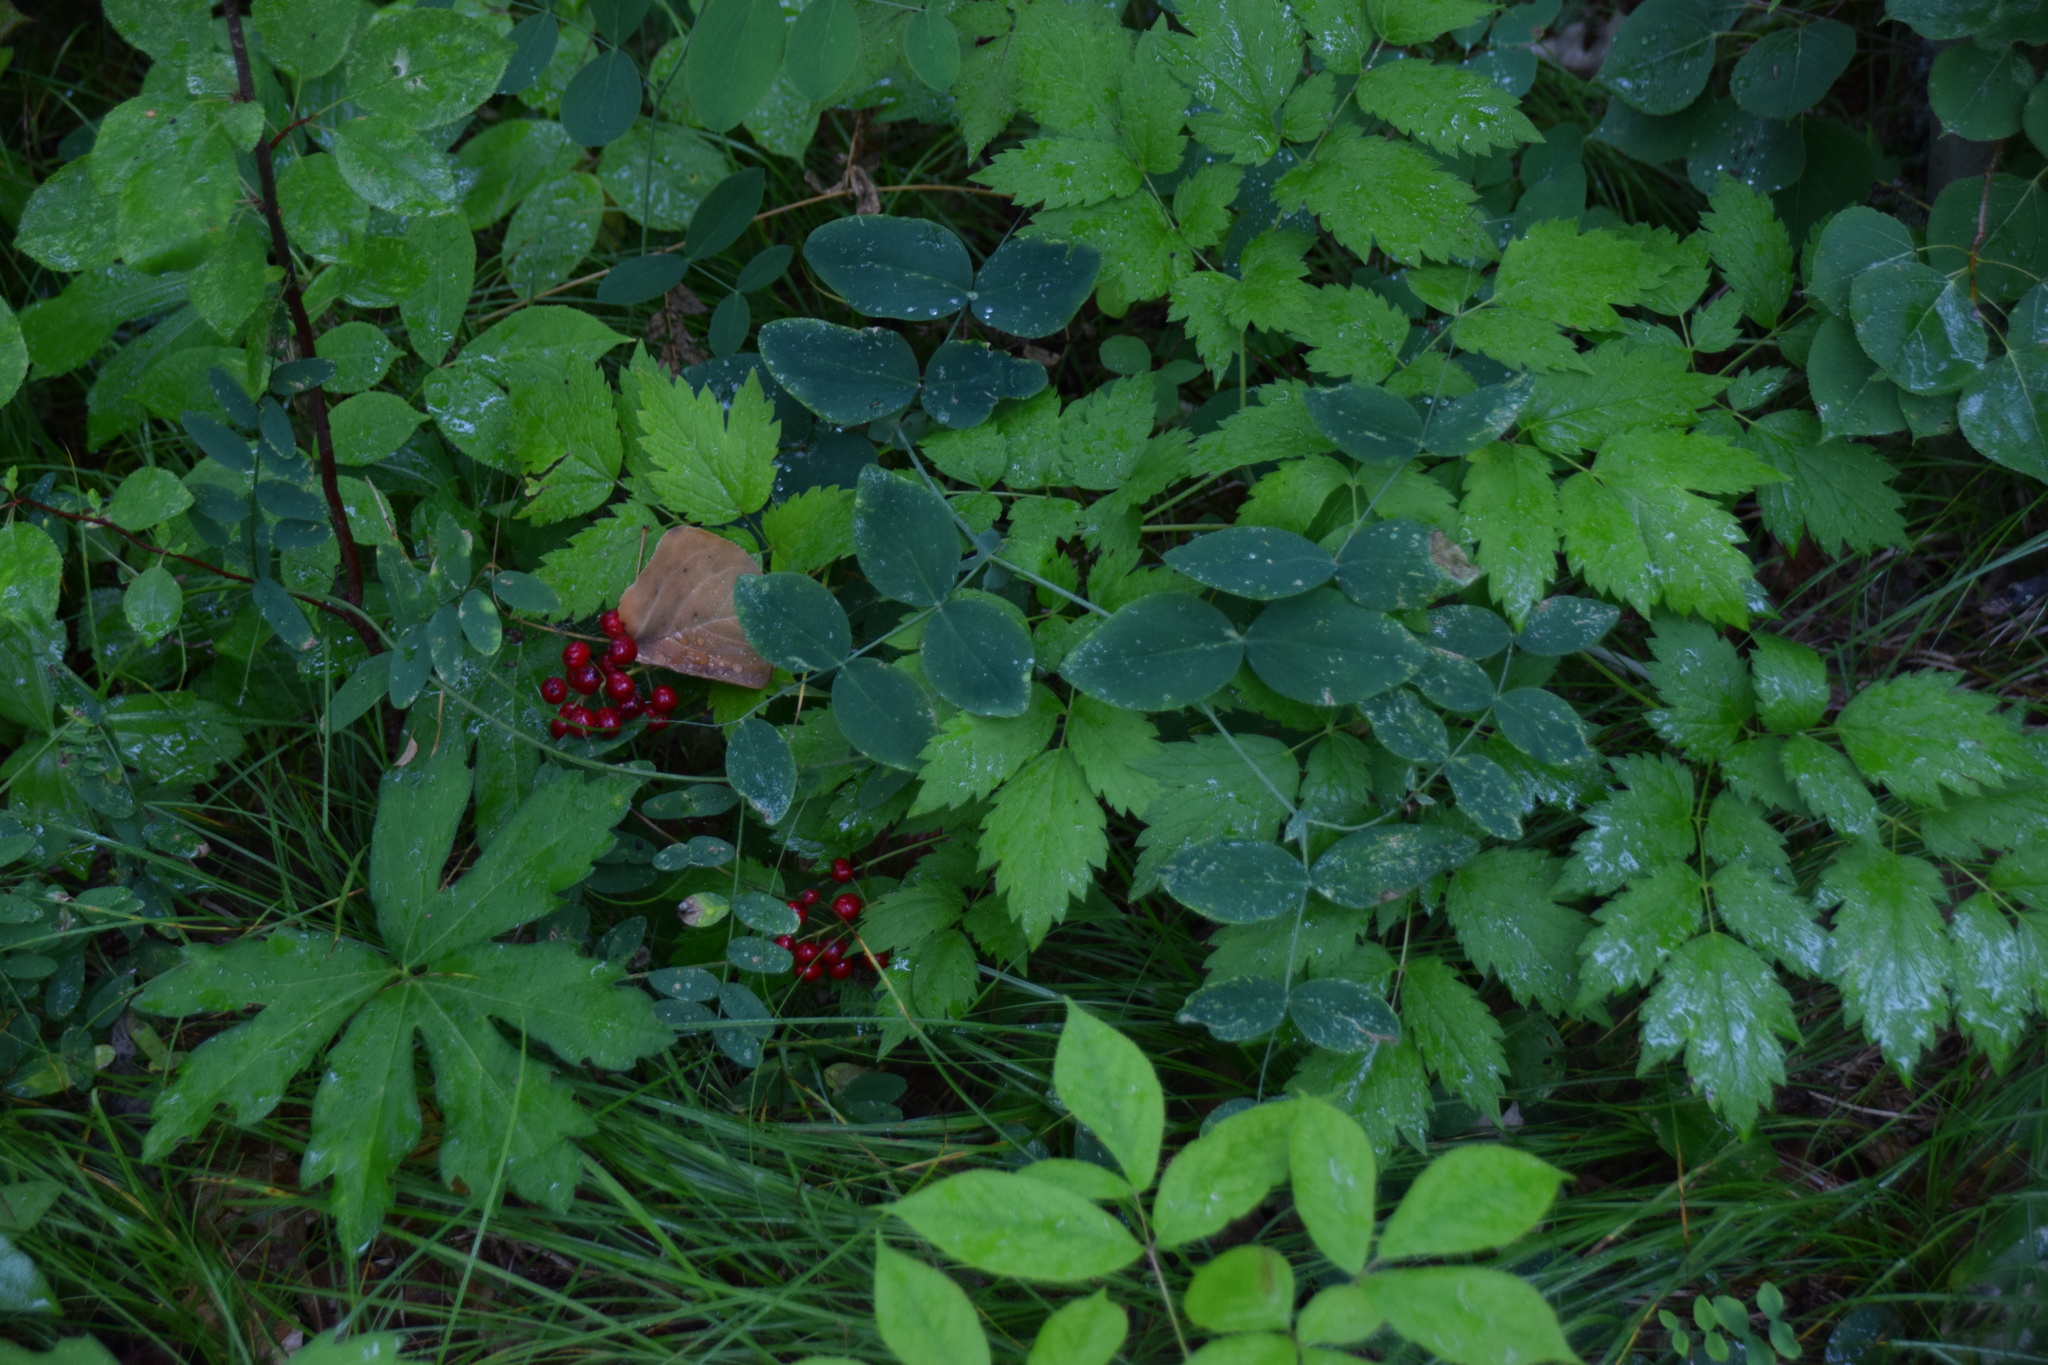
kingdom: Plantae
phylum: Tracheophyta
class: Magnoliopsida
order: Ranunculales
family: Ranunculaceae
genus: Actaea
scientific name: Actaea rubra
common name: Red baneberry
